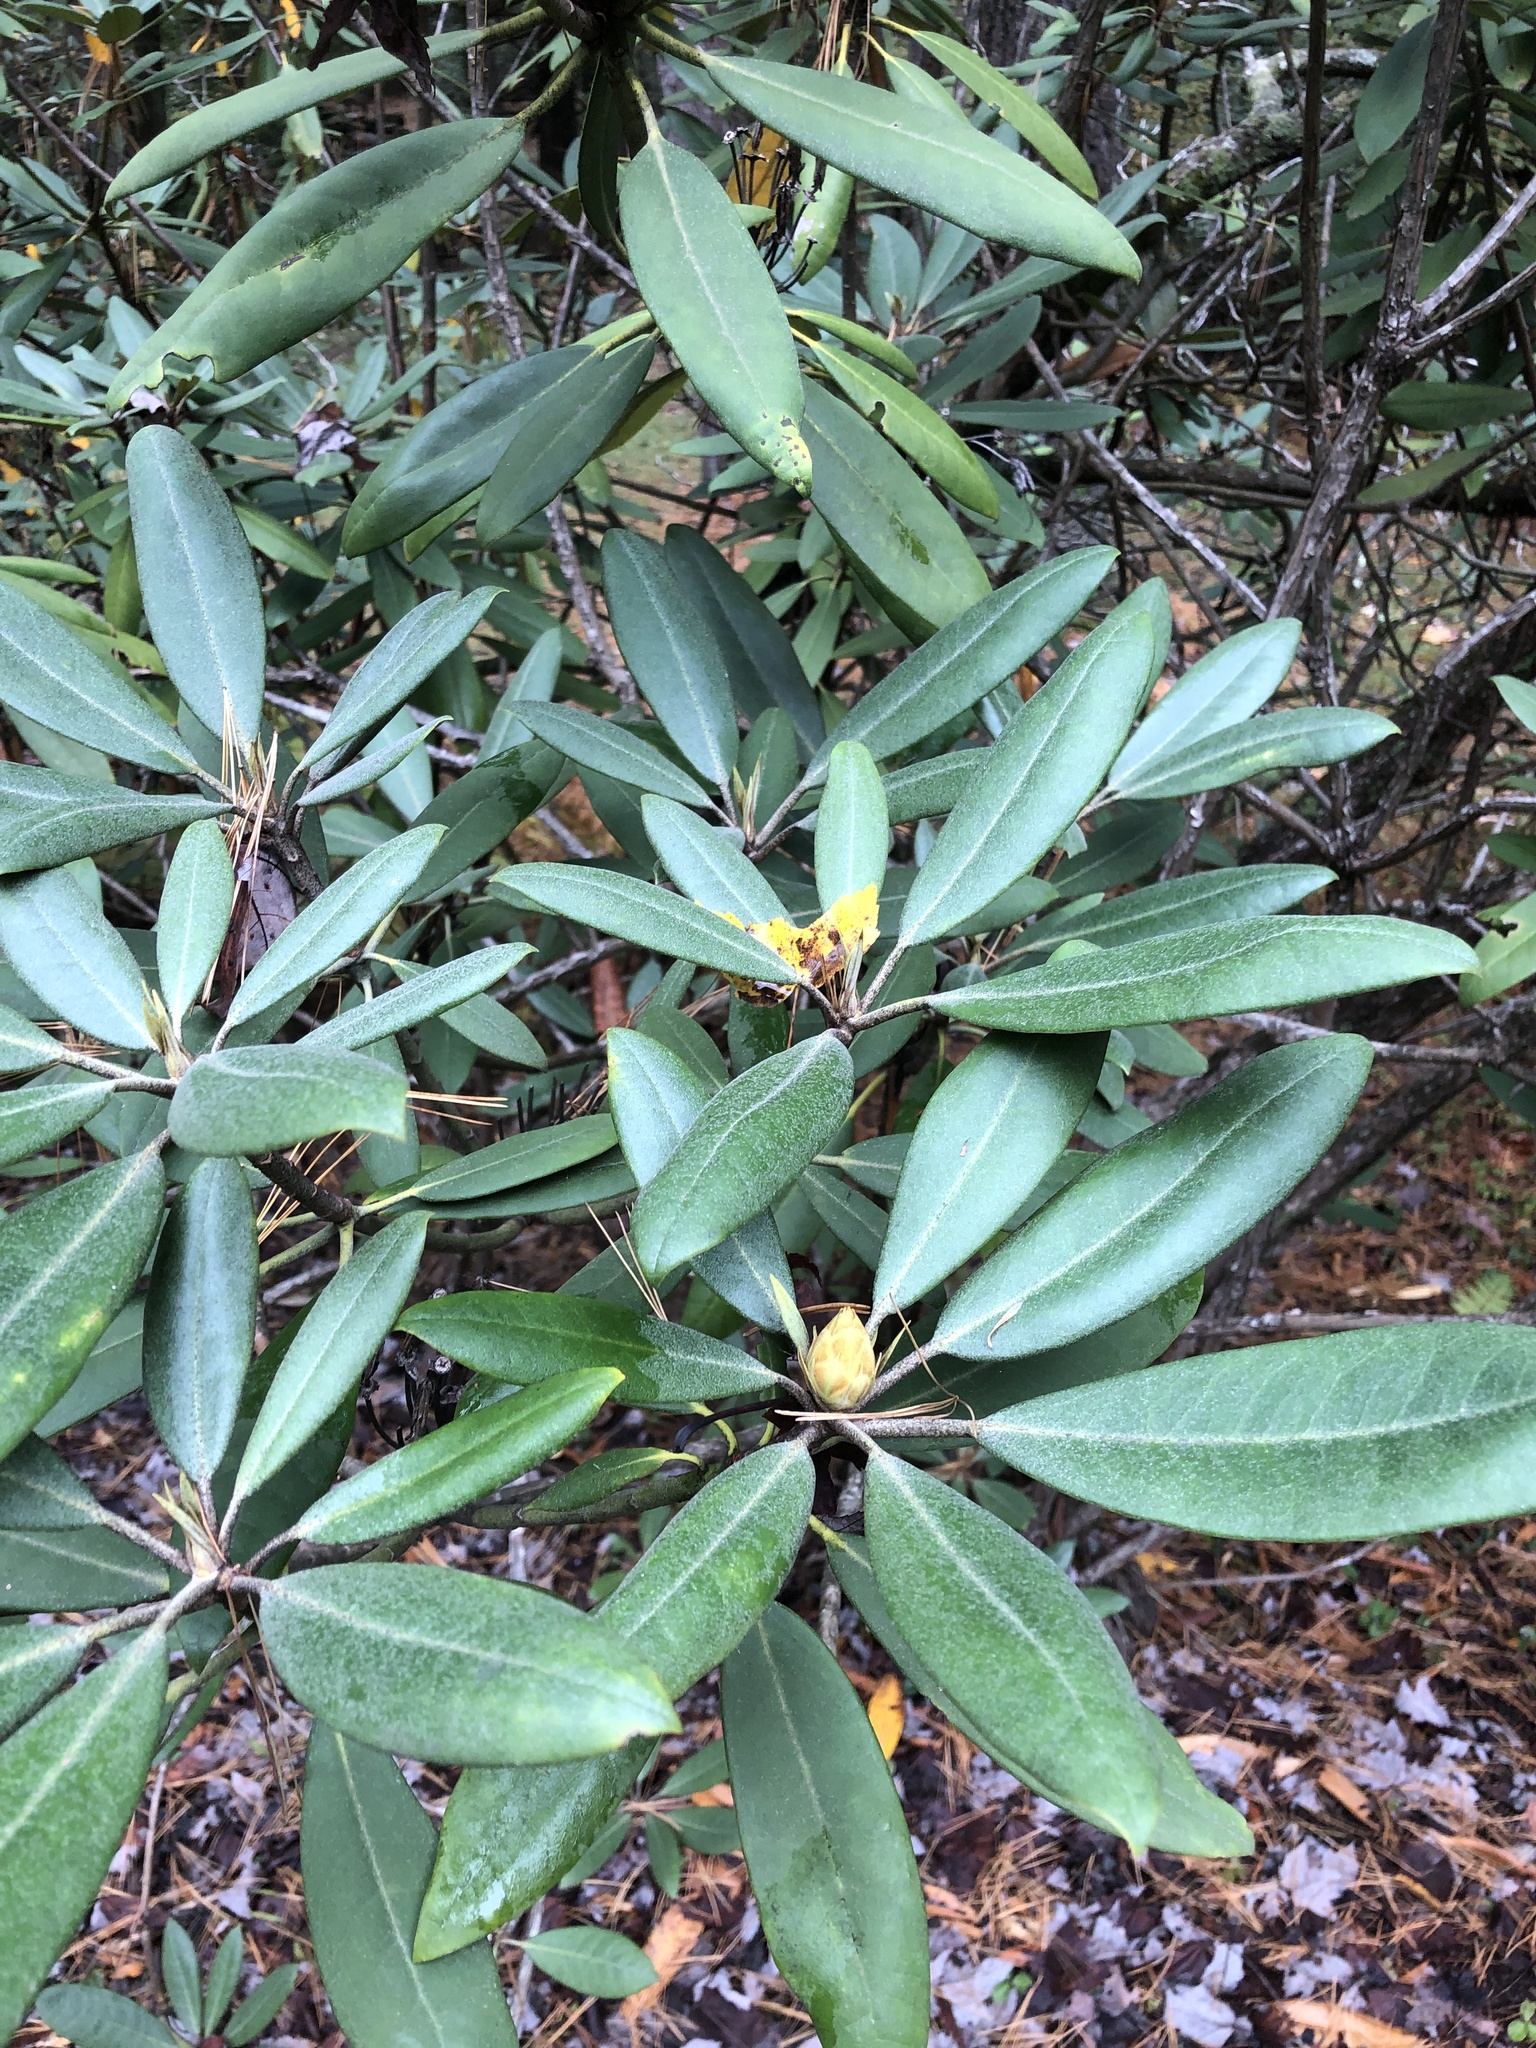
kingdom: Plantae
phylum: Tracheophyta
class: Magnoliopsida
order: Ericales
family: Ericaceae
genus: Rhododendron
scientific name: Rhododendron maximum
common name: Great rhododendron
